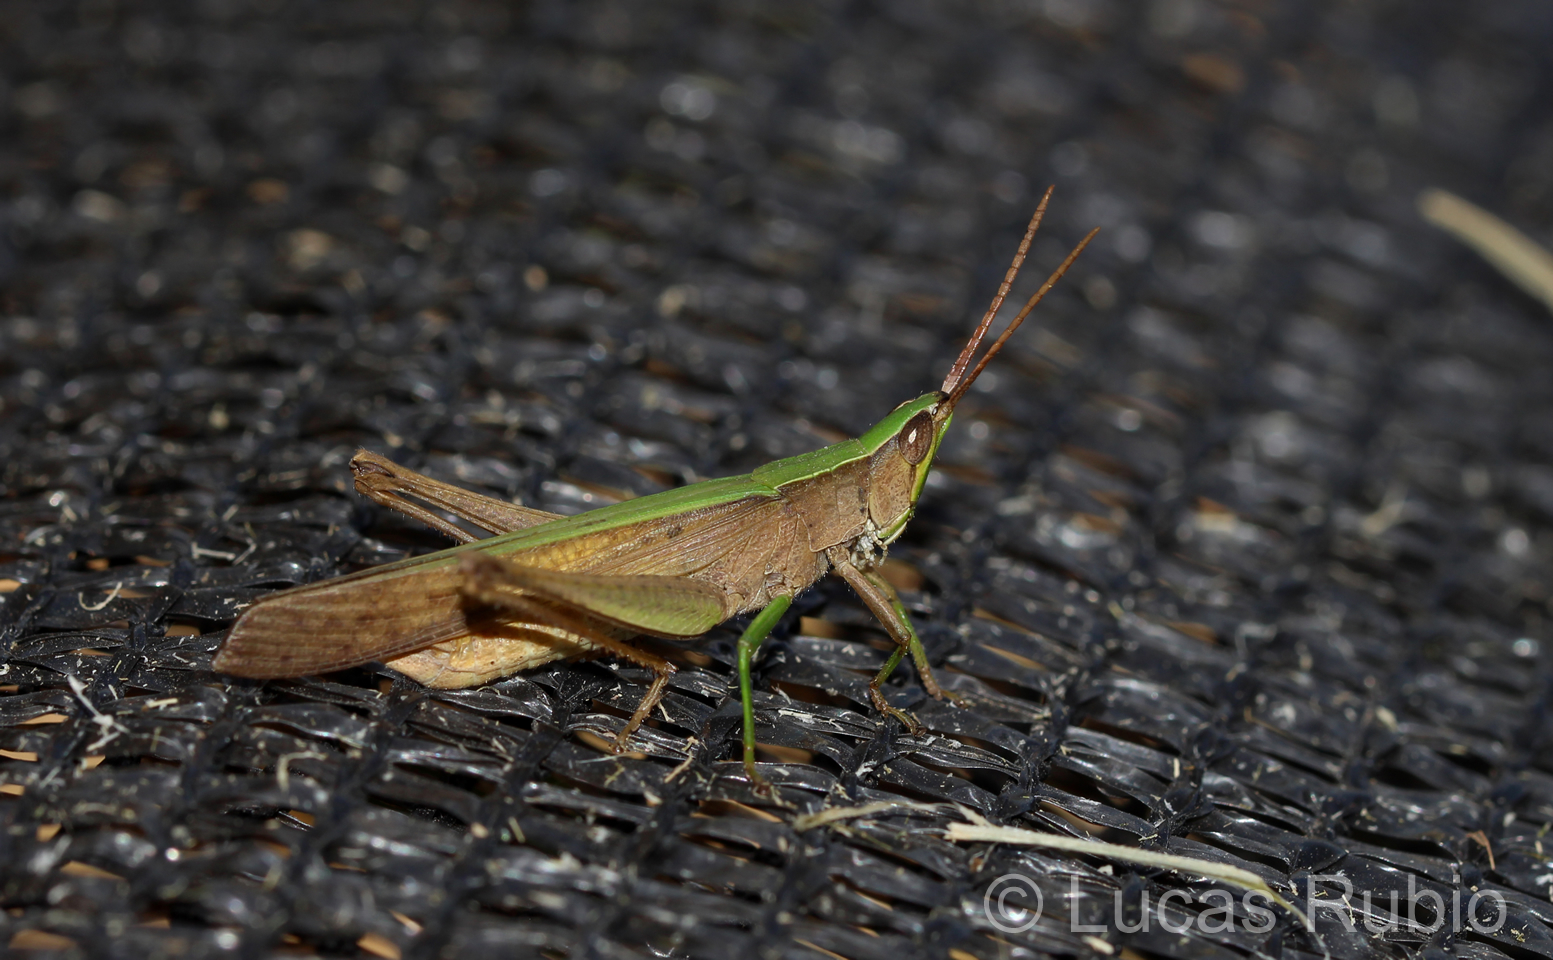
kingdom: Animalia
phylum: Arthropoda
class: Insecta
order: Orthoptera
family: Acrididae
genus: Metaleptea
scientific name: Metaleptea adspersa
